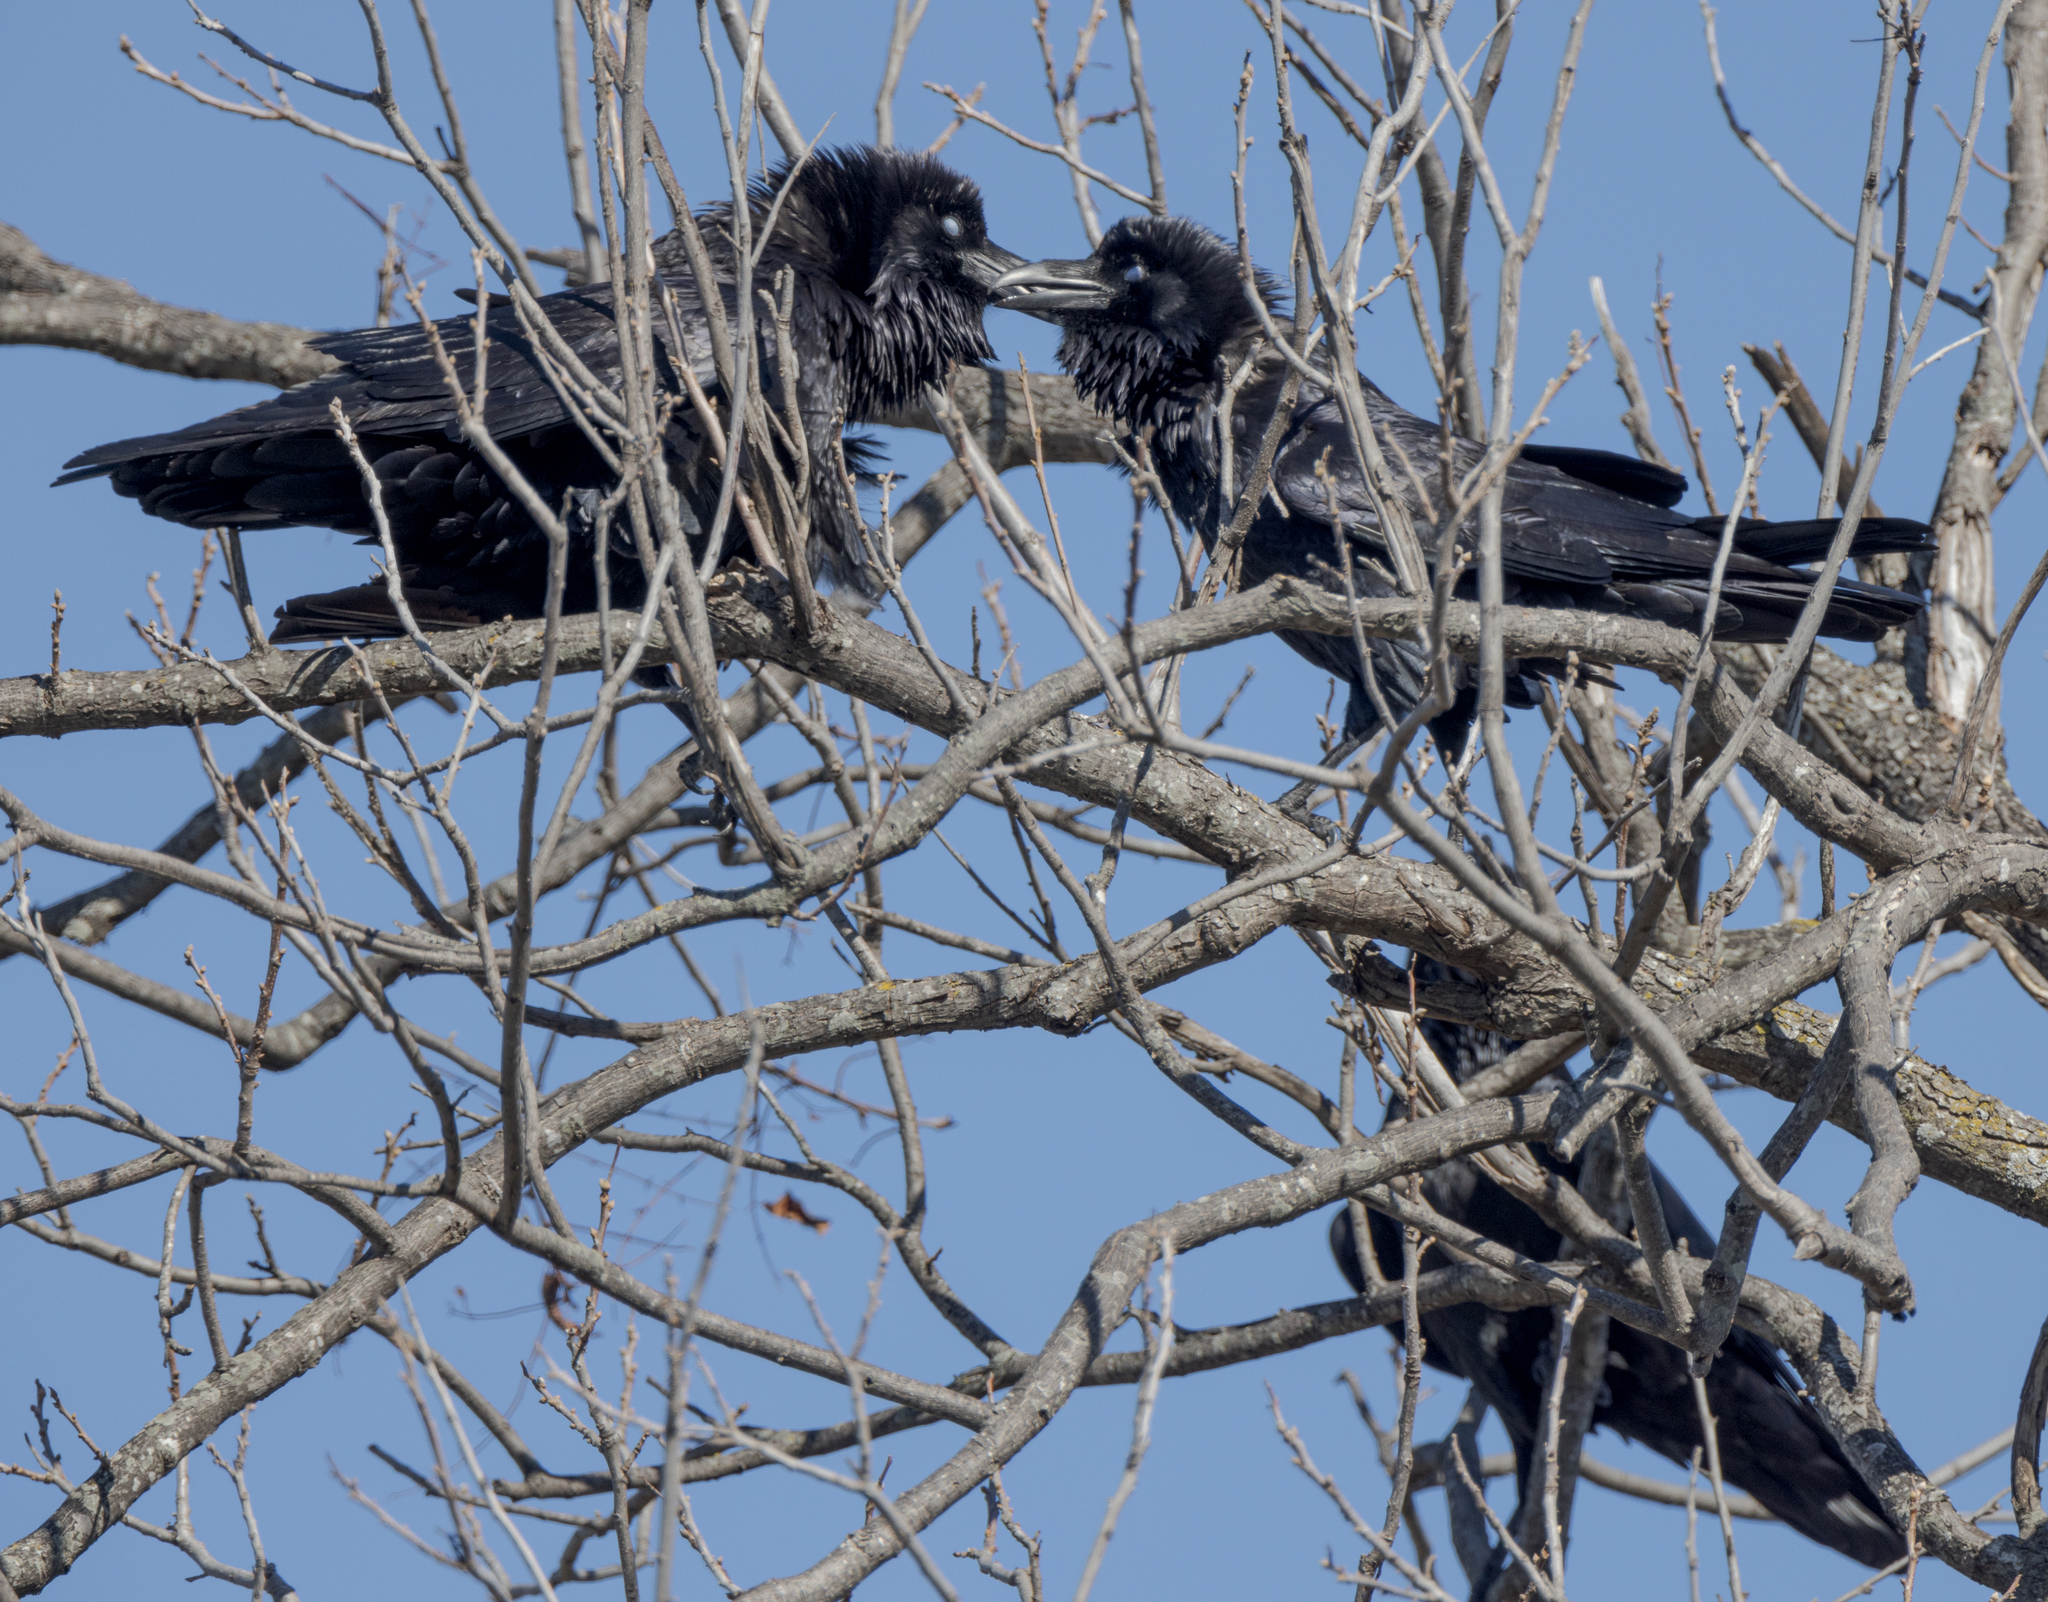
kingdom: Animalia
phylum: Chordata
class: Aves
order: Passeriformes
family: Corvidae
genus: Corvus
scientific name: Corvus corax
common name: Common raven
